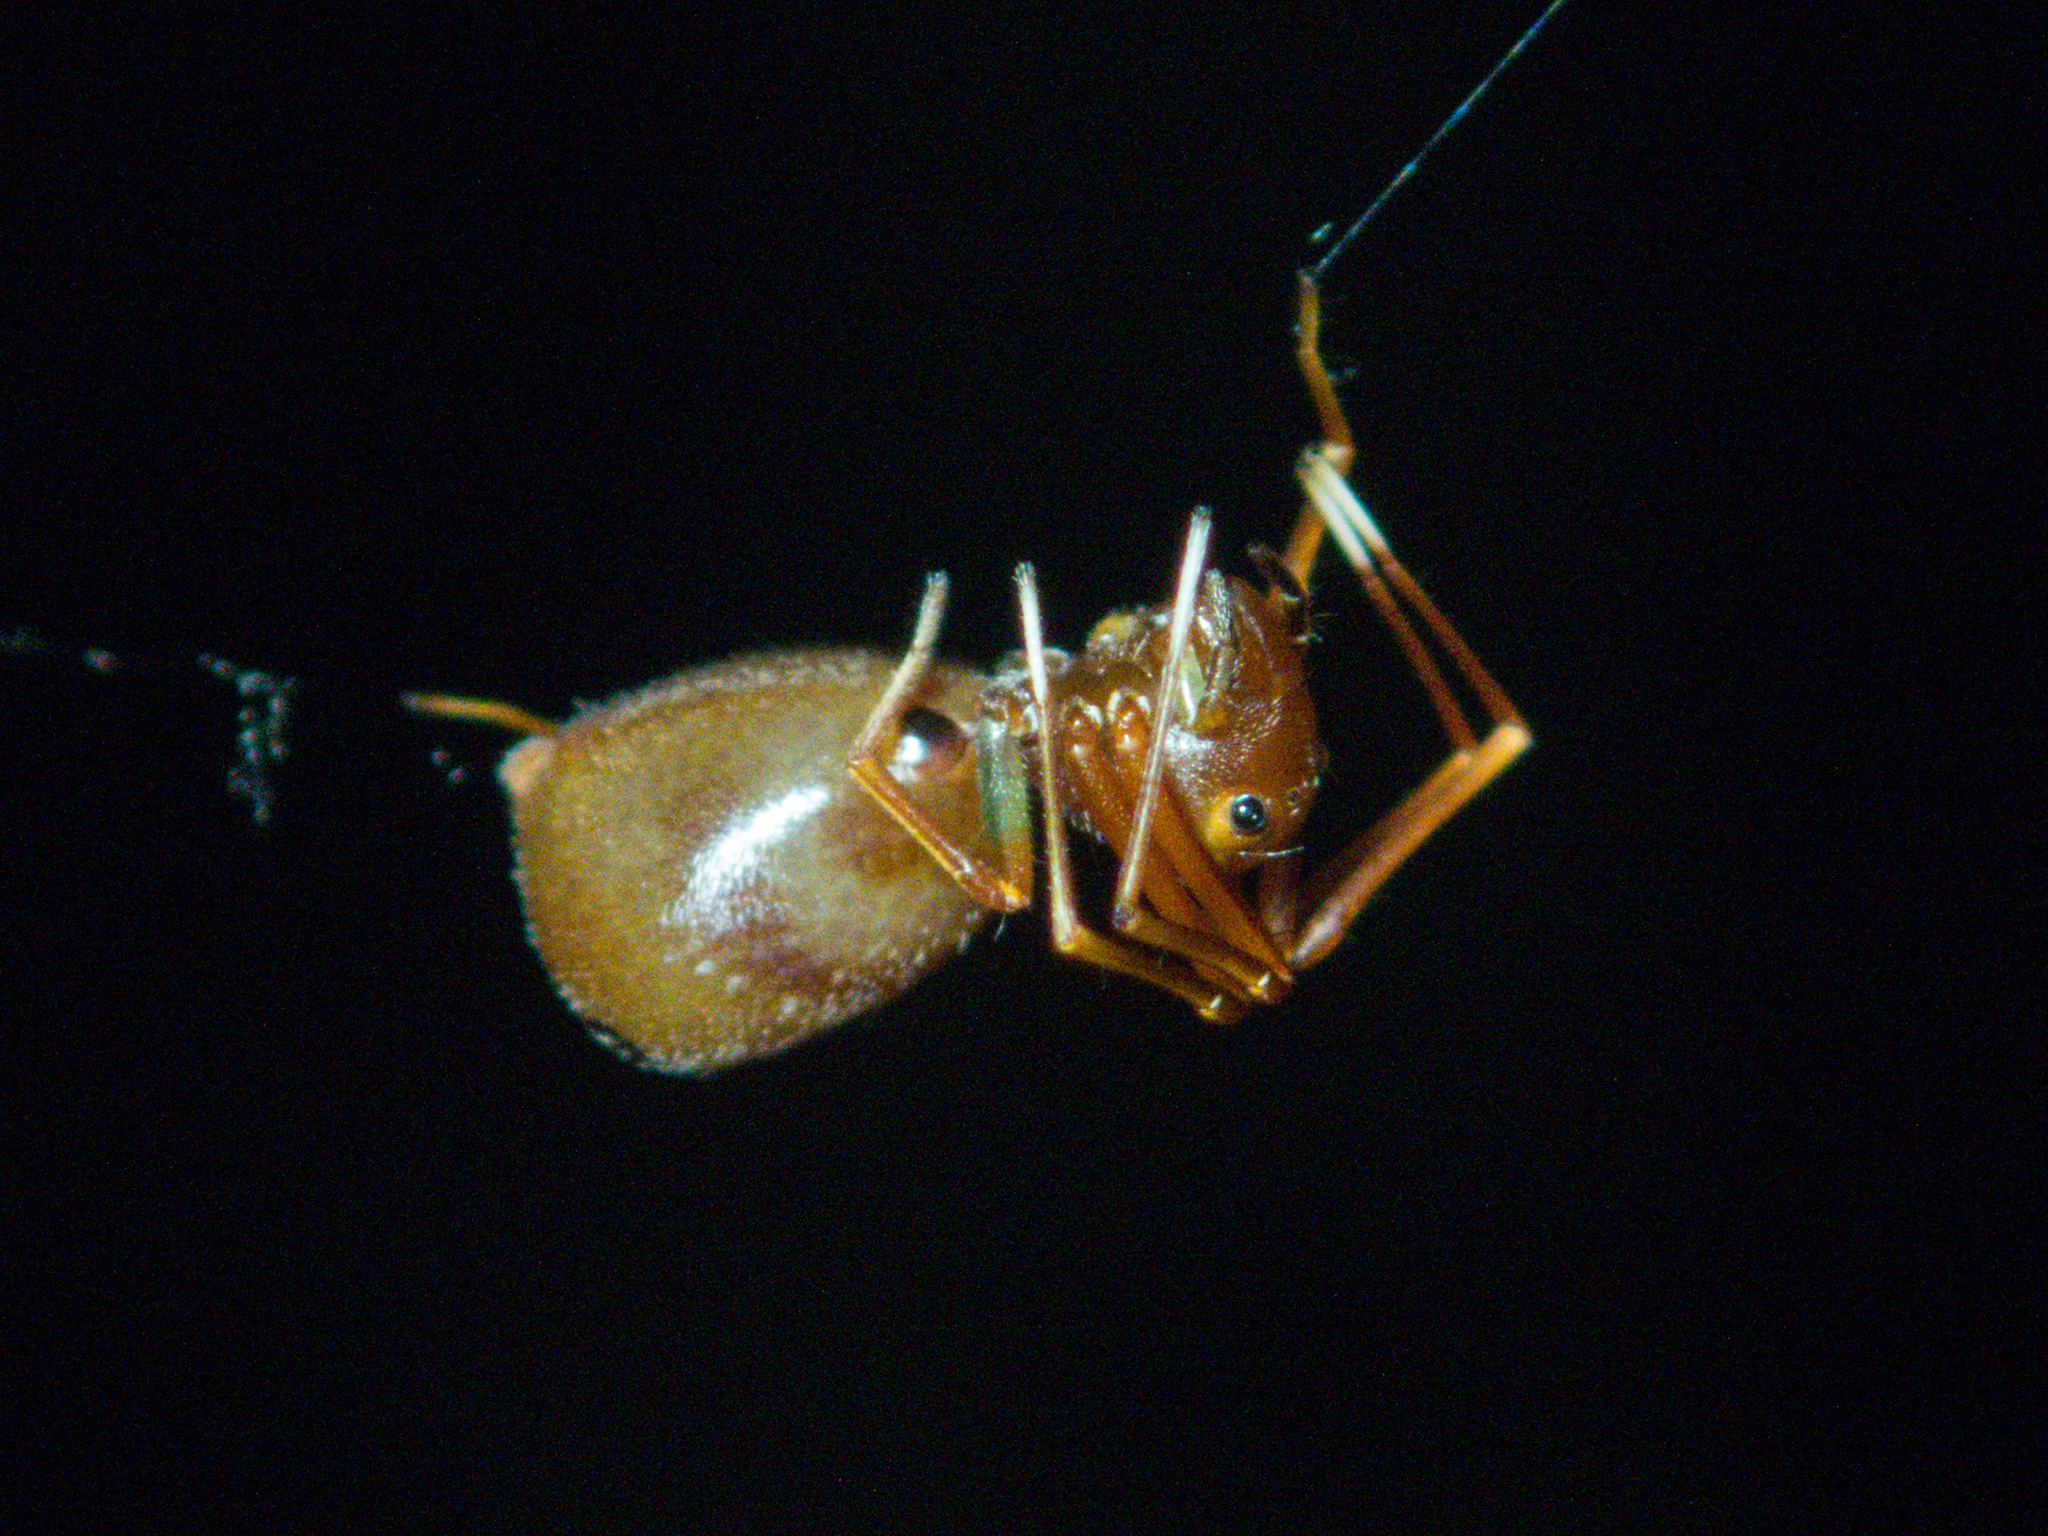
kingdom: Animalia
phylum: Arthropoda
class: Arachnida
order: Araneae
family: Thomisidae
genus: Amyciaea
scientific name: Amyciaea forticeps
